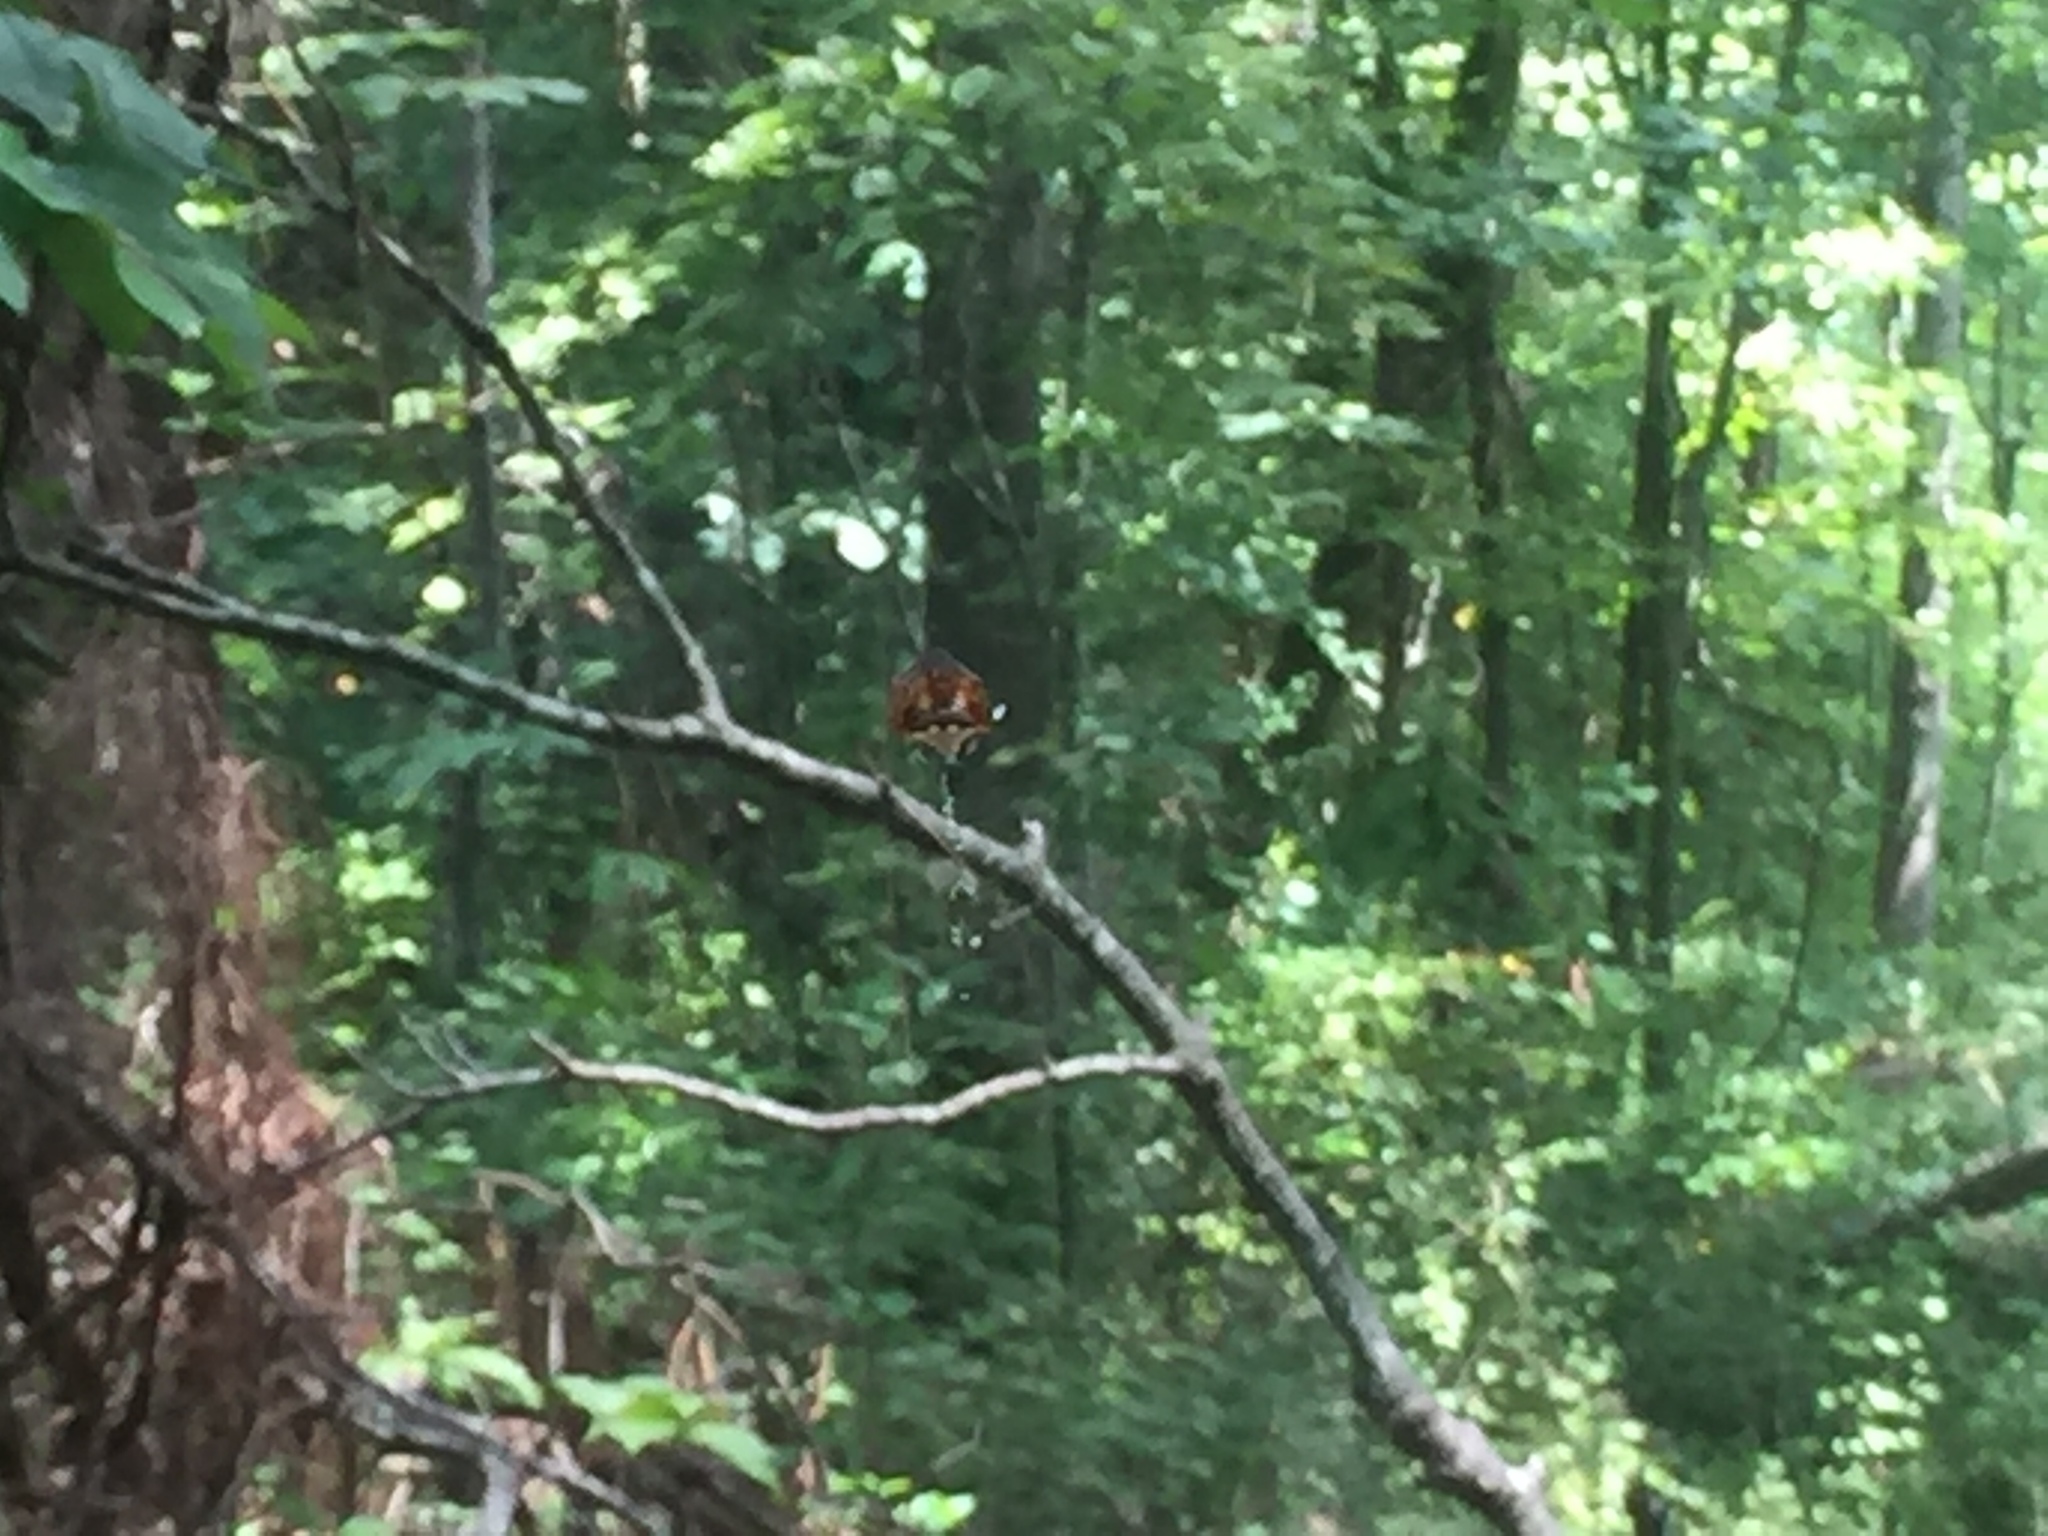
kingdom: Animalia
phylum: Arthropoda
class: Arachnida
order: Araneae
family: Araneidae
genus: Verrucosa
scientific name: Verrucosa arenata
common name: Orb weavers
